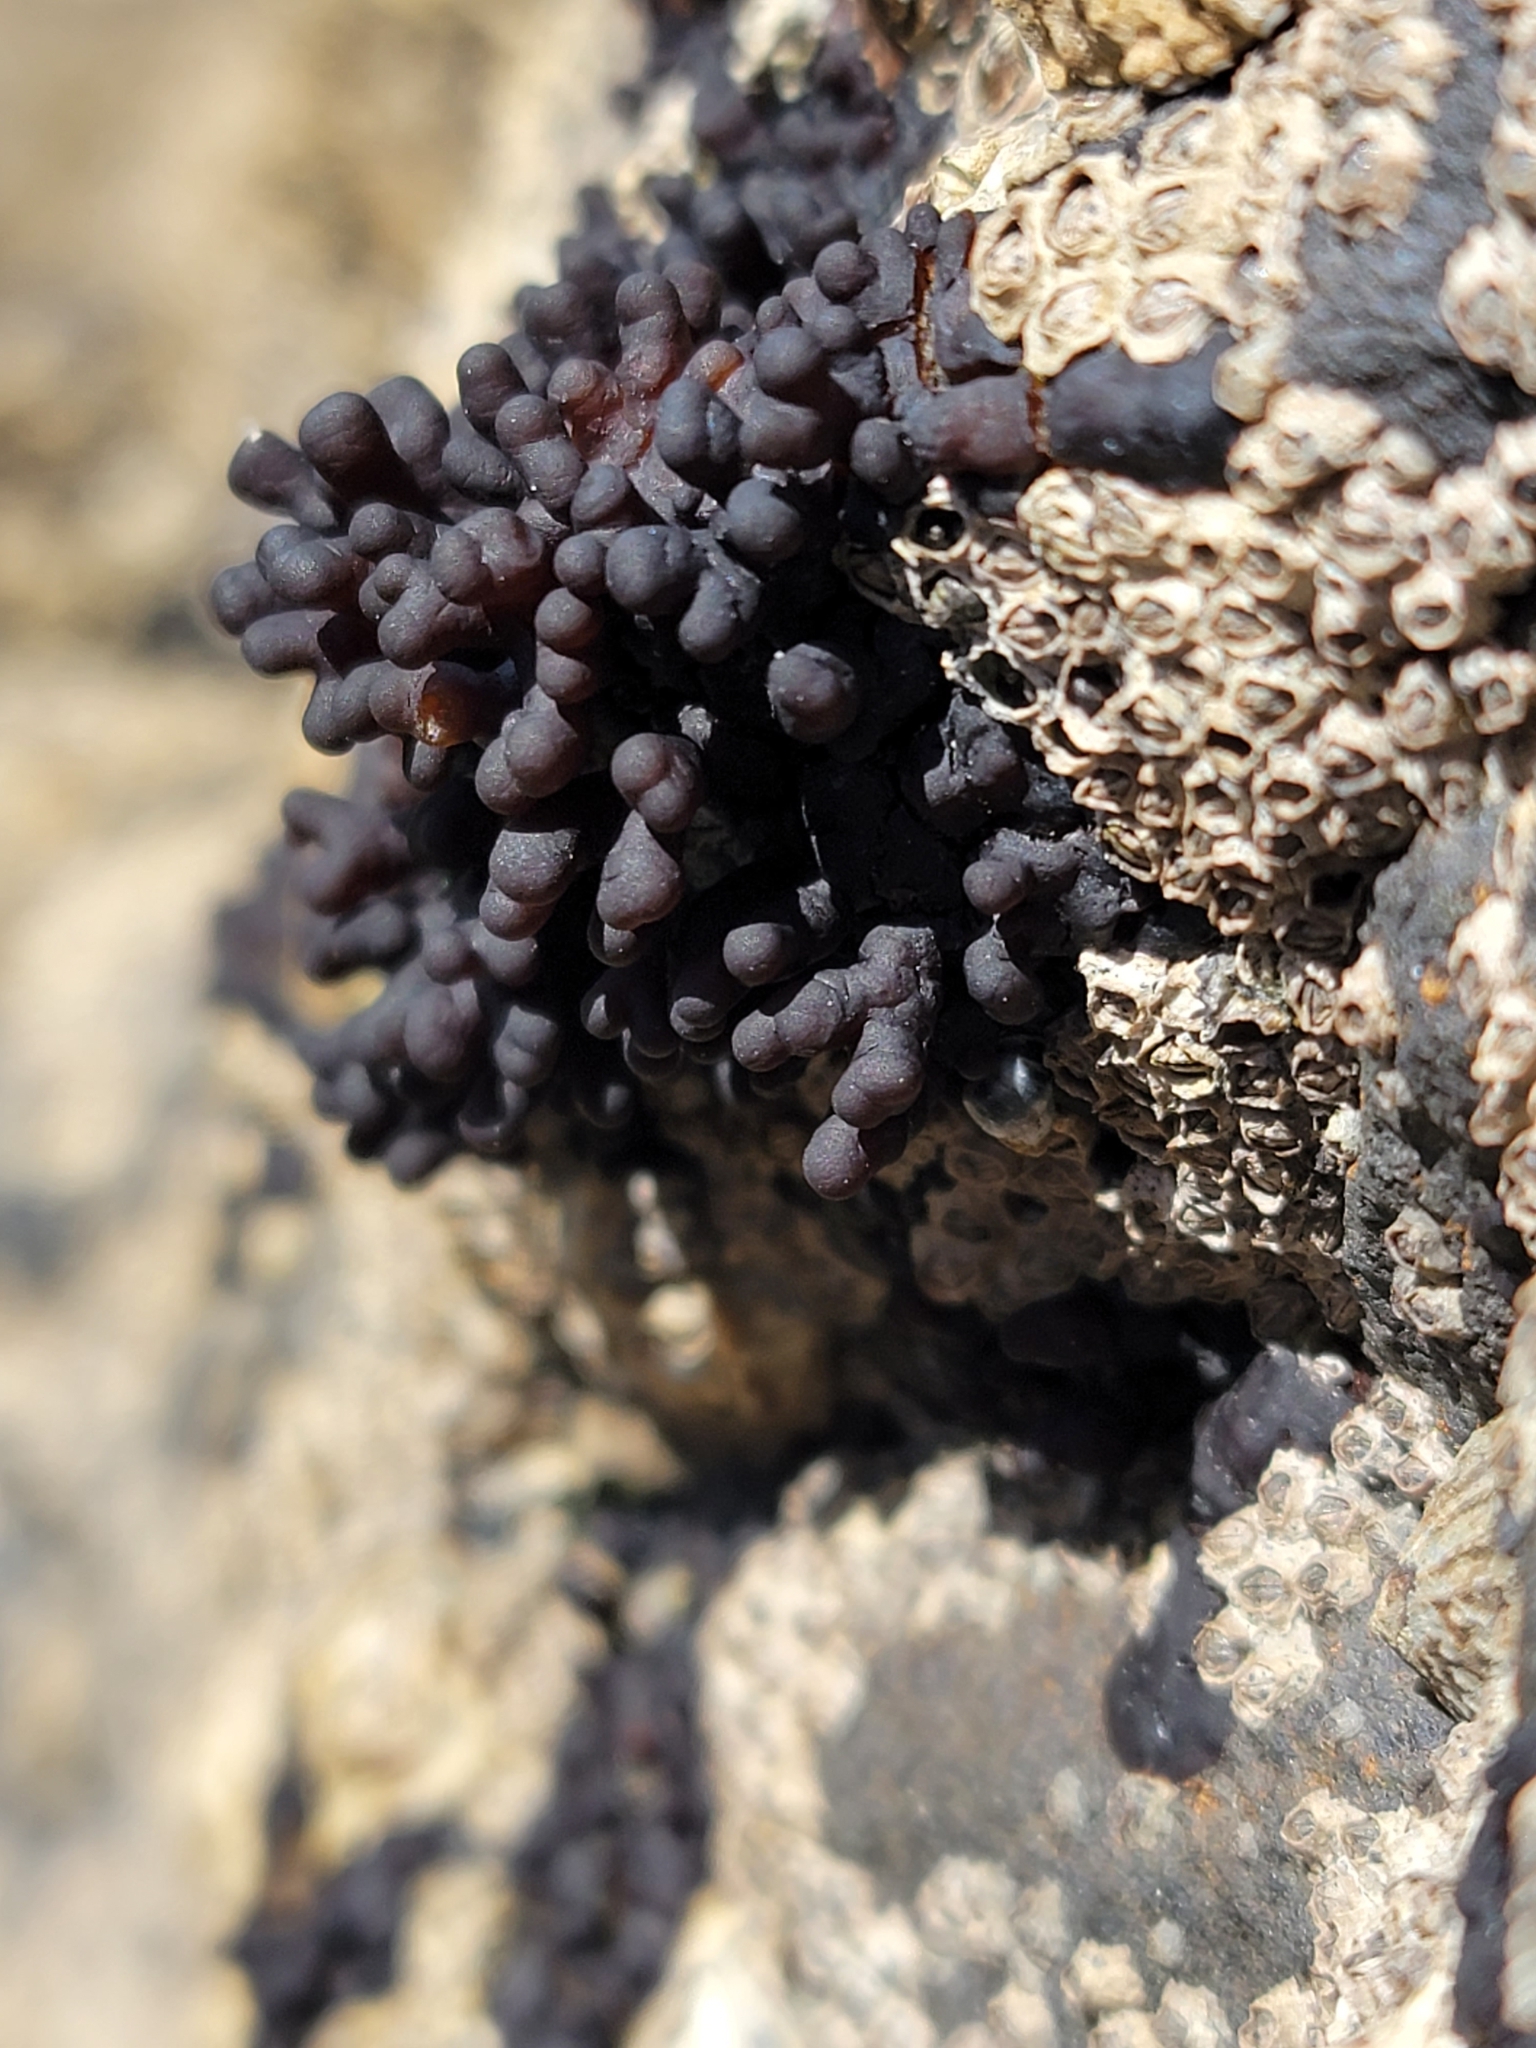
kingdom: Plantae
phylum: Rhodophyta
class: Florideophyceae
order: Hildenbrandiales
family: Hildenbrandiaceae
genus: Apophlaea
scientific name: Apophlaea sinclairii
